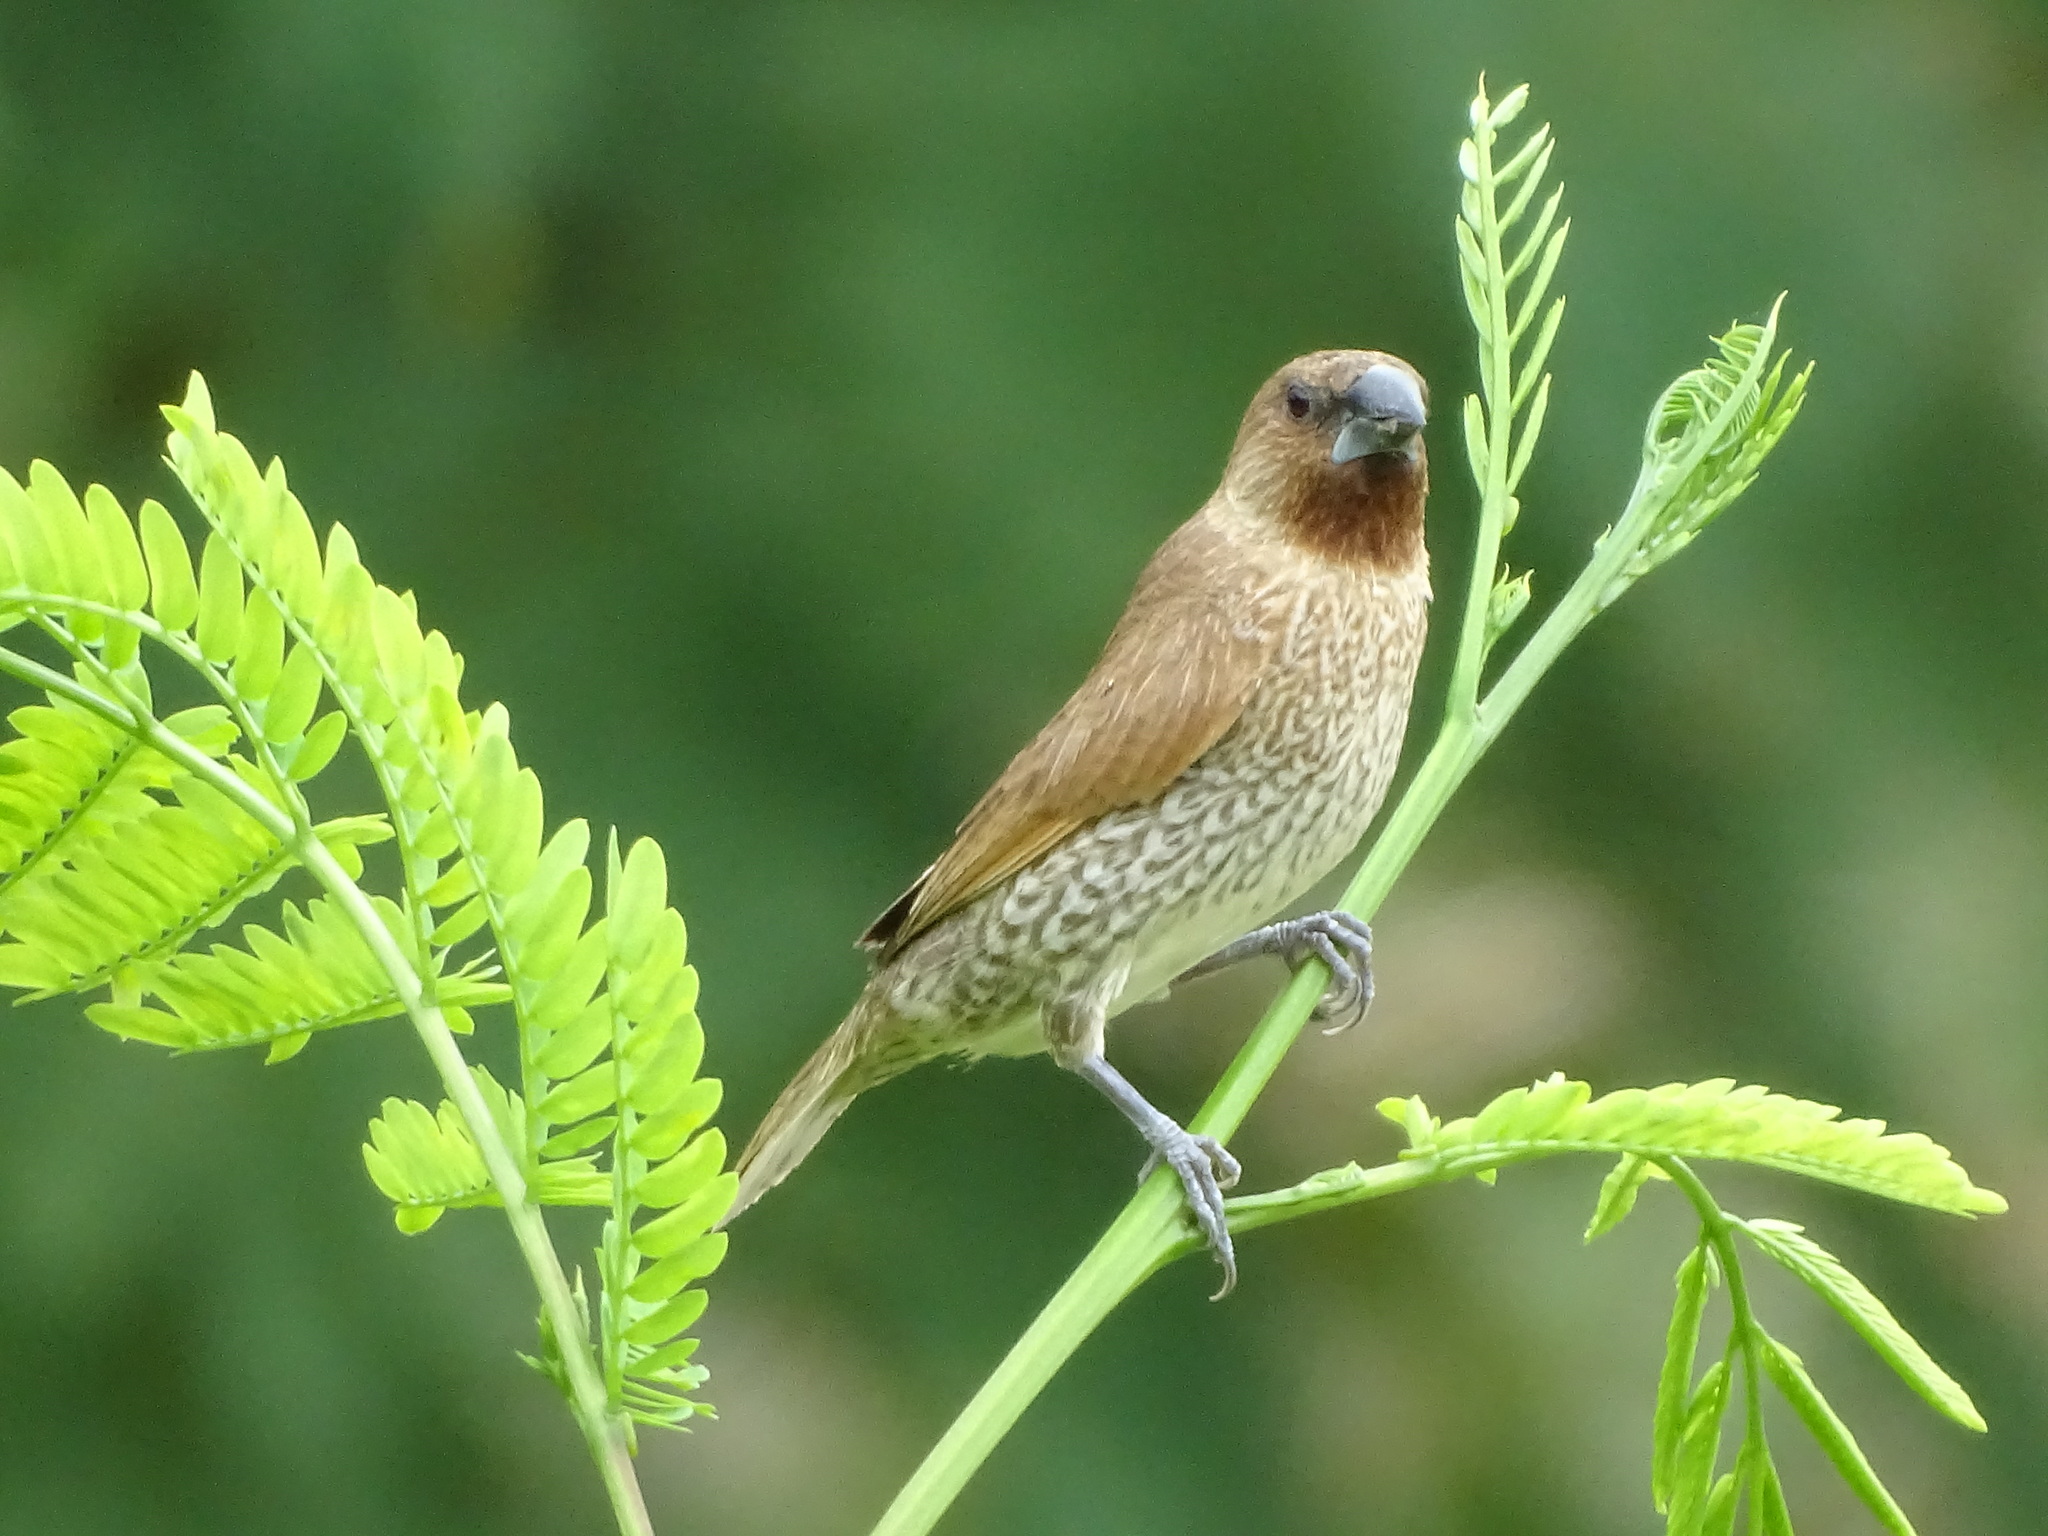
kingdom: Animalia
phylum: Chordata
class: Aves
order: Passeriformes
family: Estrildidae
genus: Lonchura
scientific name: Lonchura punctulata
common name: Scaly-breasted munia
